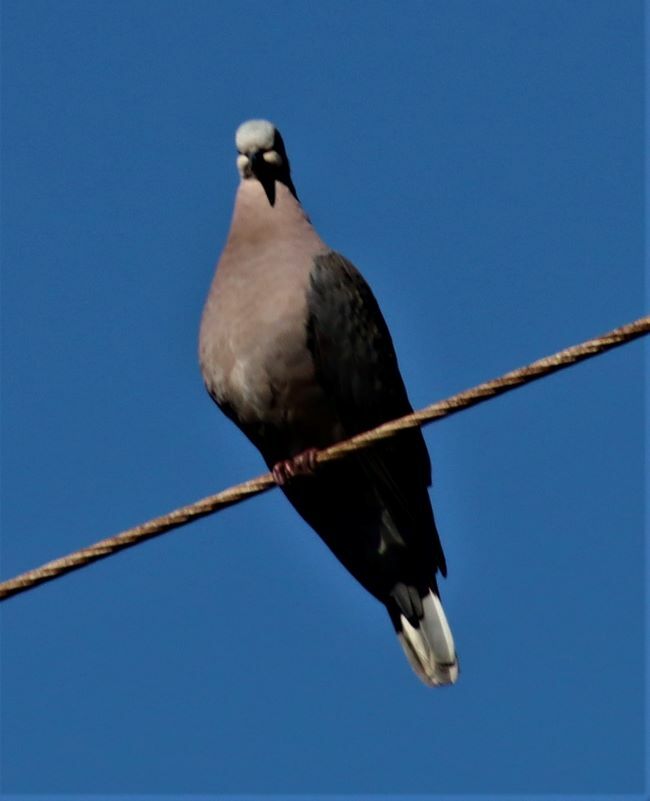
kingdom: Animalia
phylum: Chordata
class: Aves
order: Columbiformes
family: Columbidae
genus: Streptopelia
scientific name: Streptopelia semitorquata
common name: Red-eyed dove
